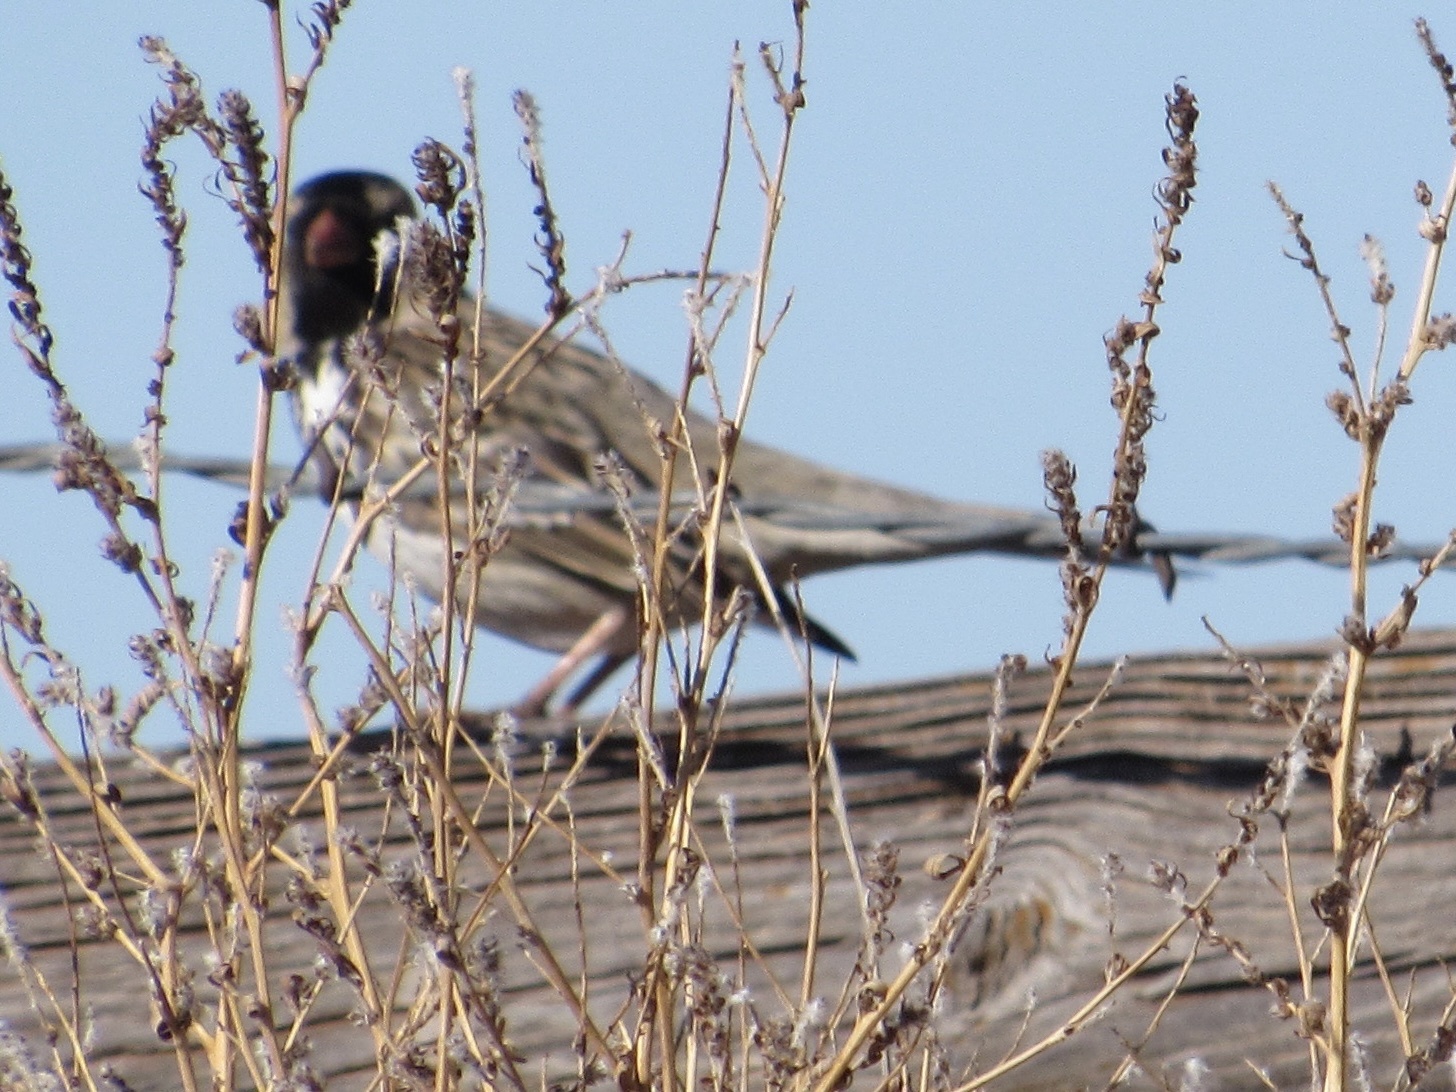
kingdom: Animalia
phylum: Chordata
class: Aves
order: Passeriformes
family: Passerellidae
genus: Zonotrichia
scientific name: Zonotrichia querula
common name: Harris's sparrow
